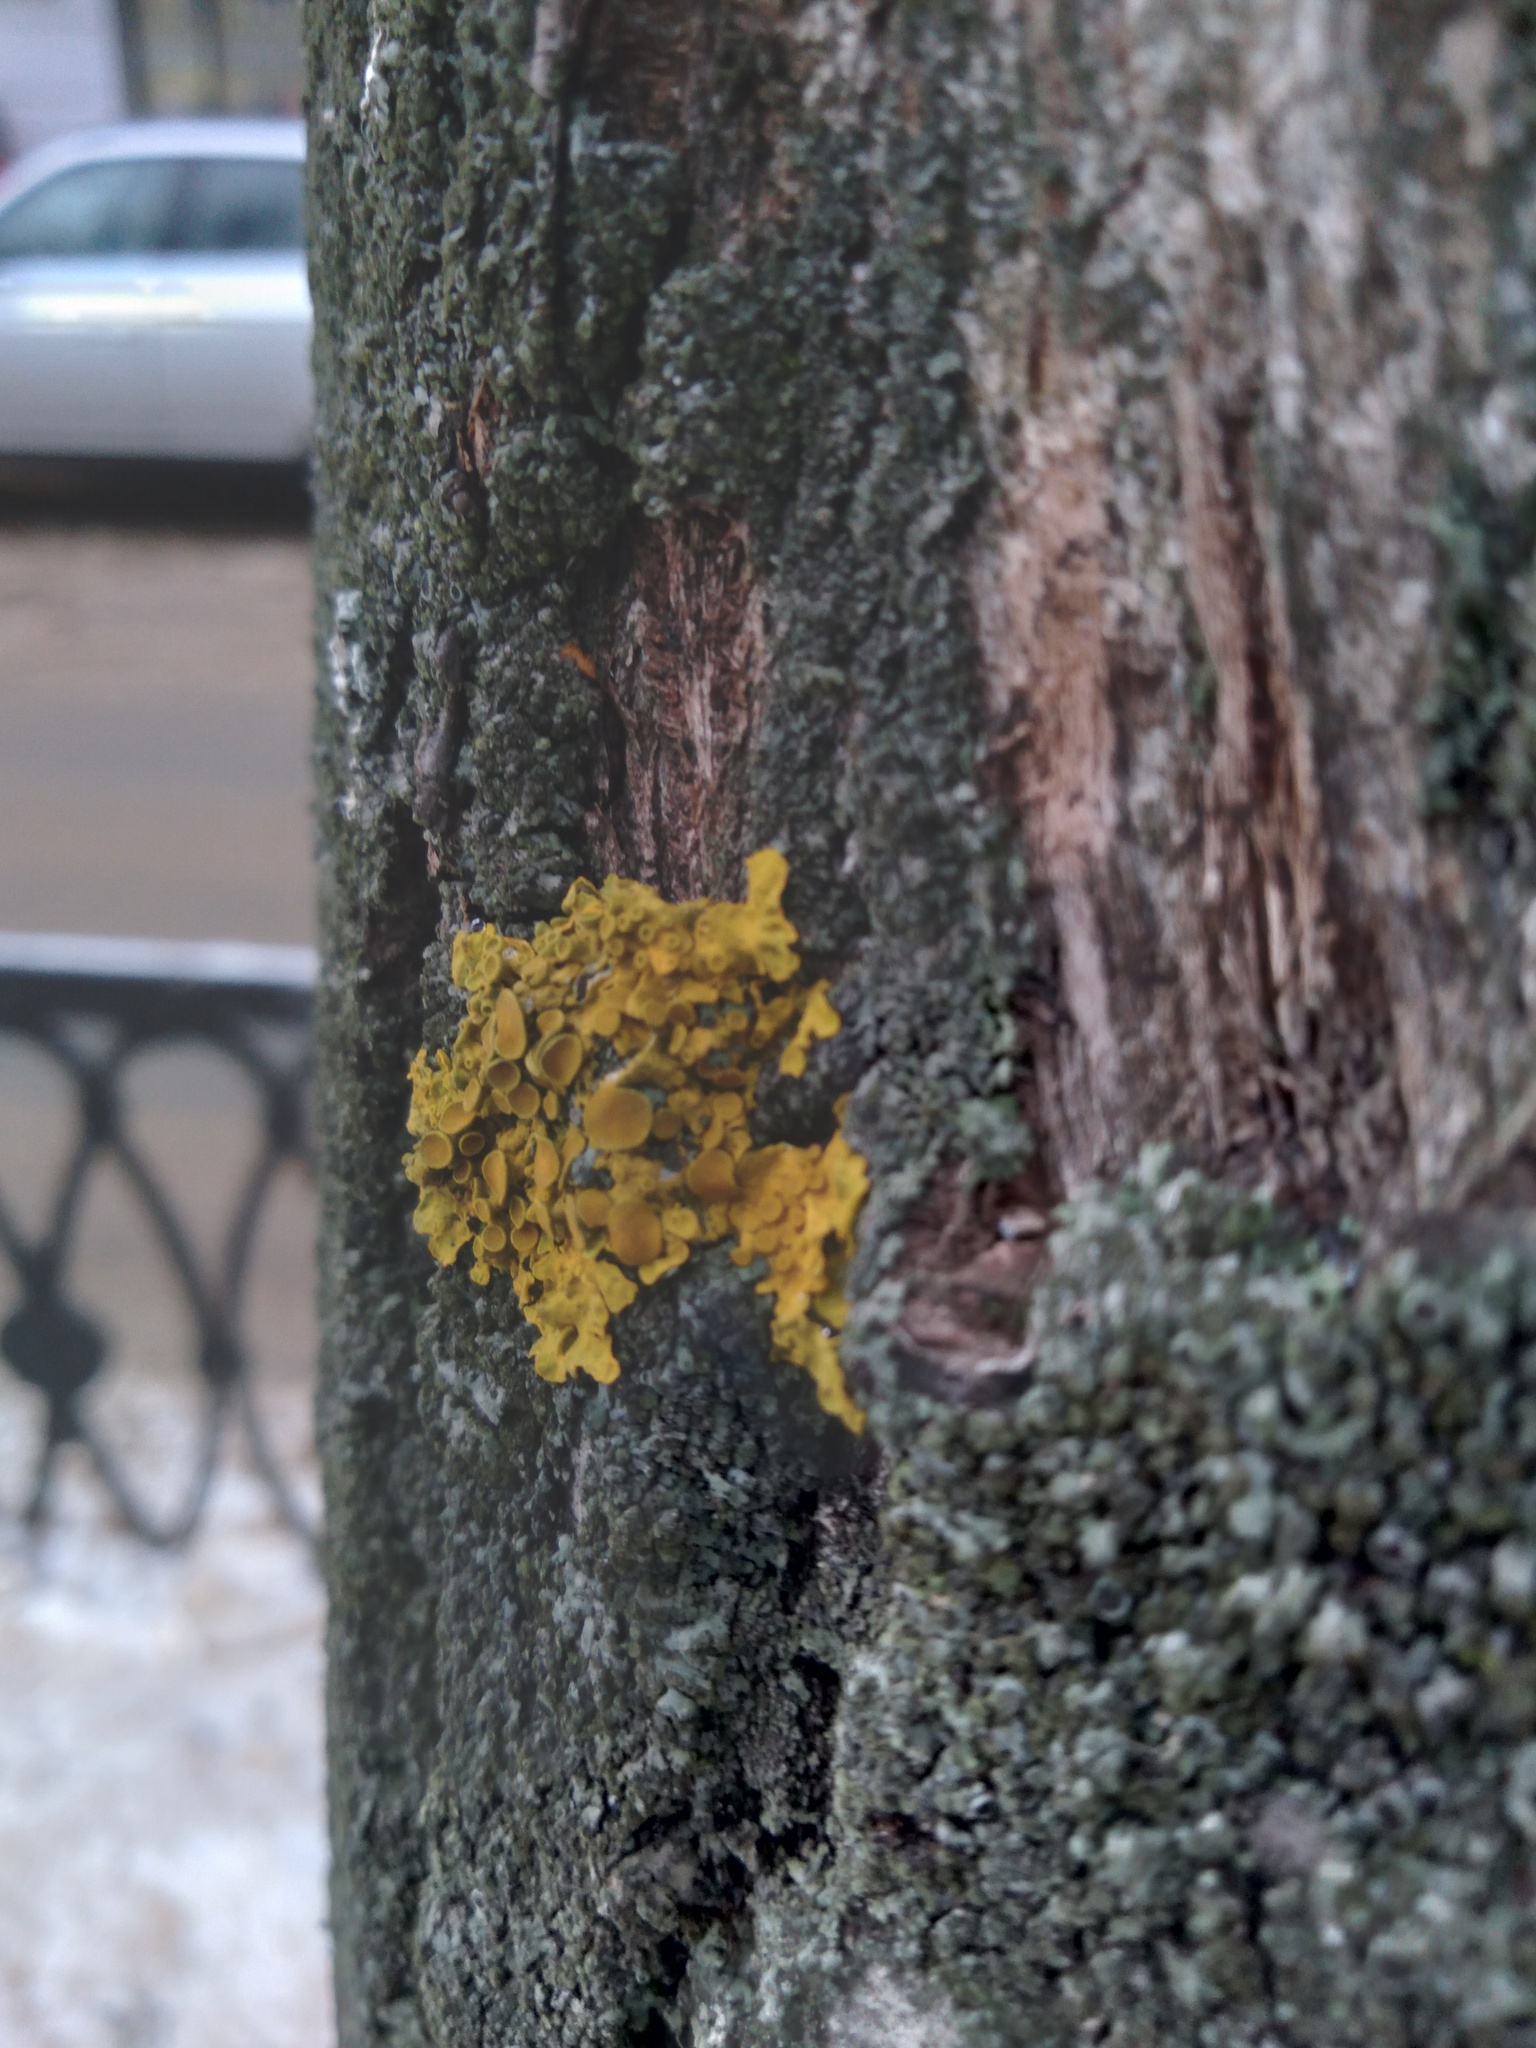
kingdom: Fungi
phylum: Ascomycota
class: Lecanoromycetes
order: Teloschistales
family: Teloschistaceae
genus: Xanthoria
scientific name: Xanthoria parietina
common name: Common orange lichen
